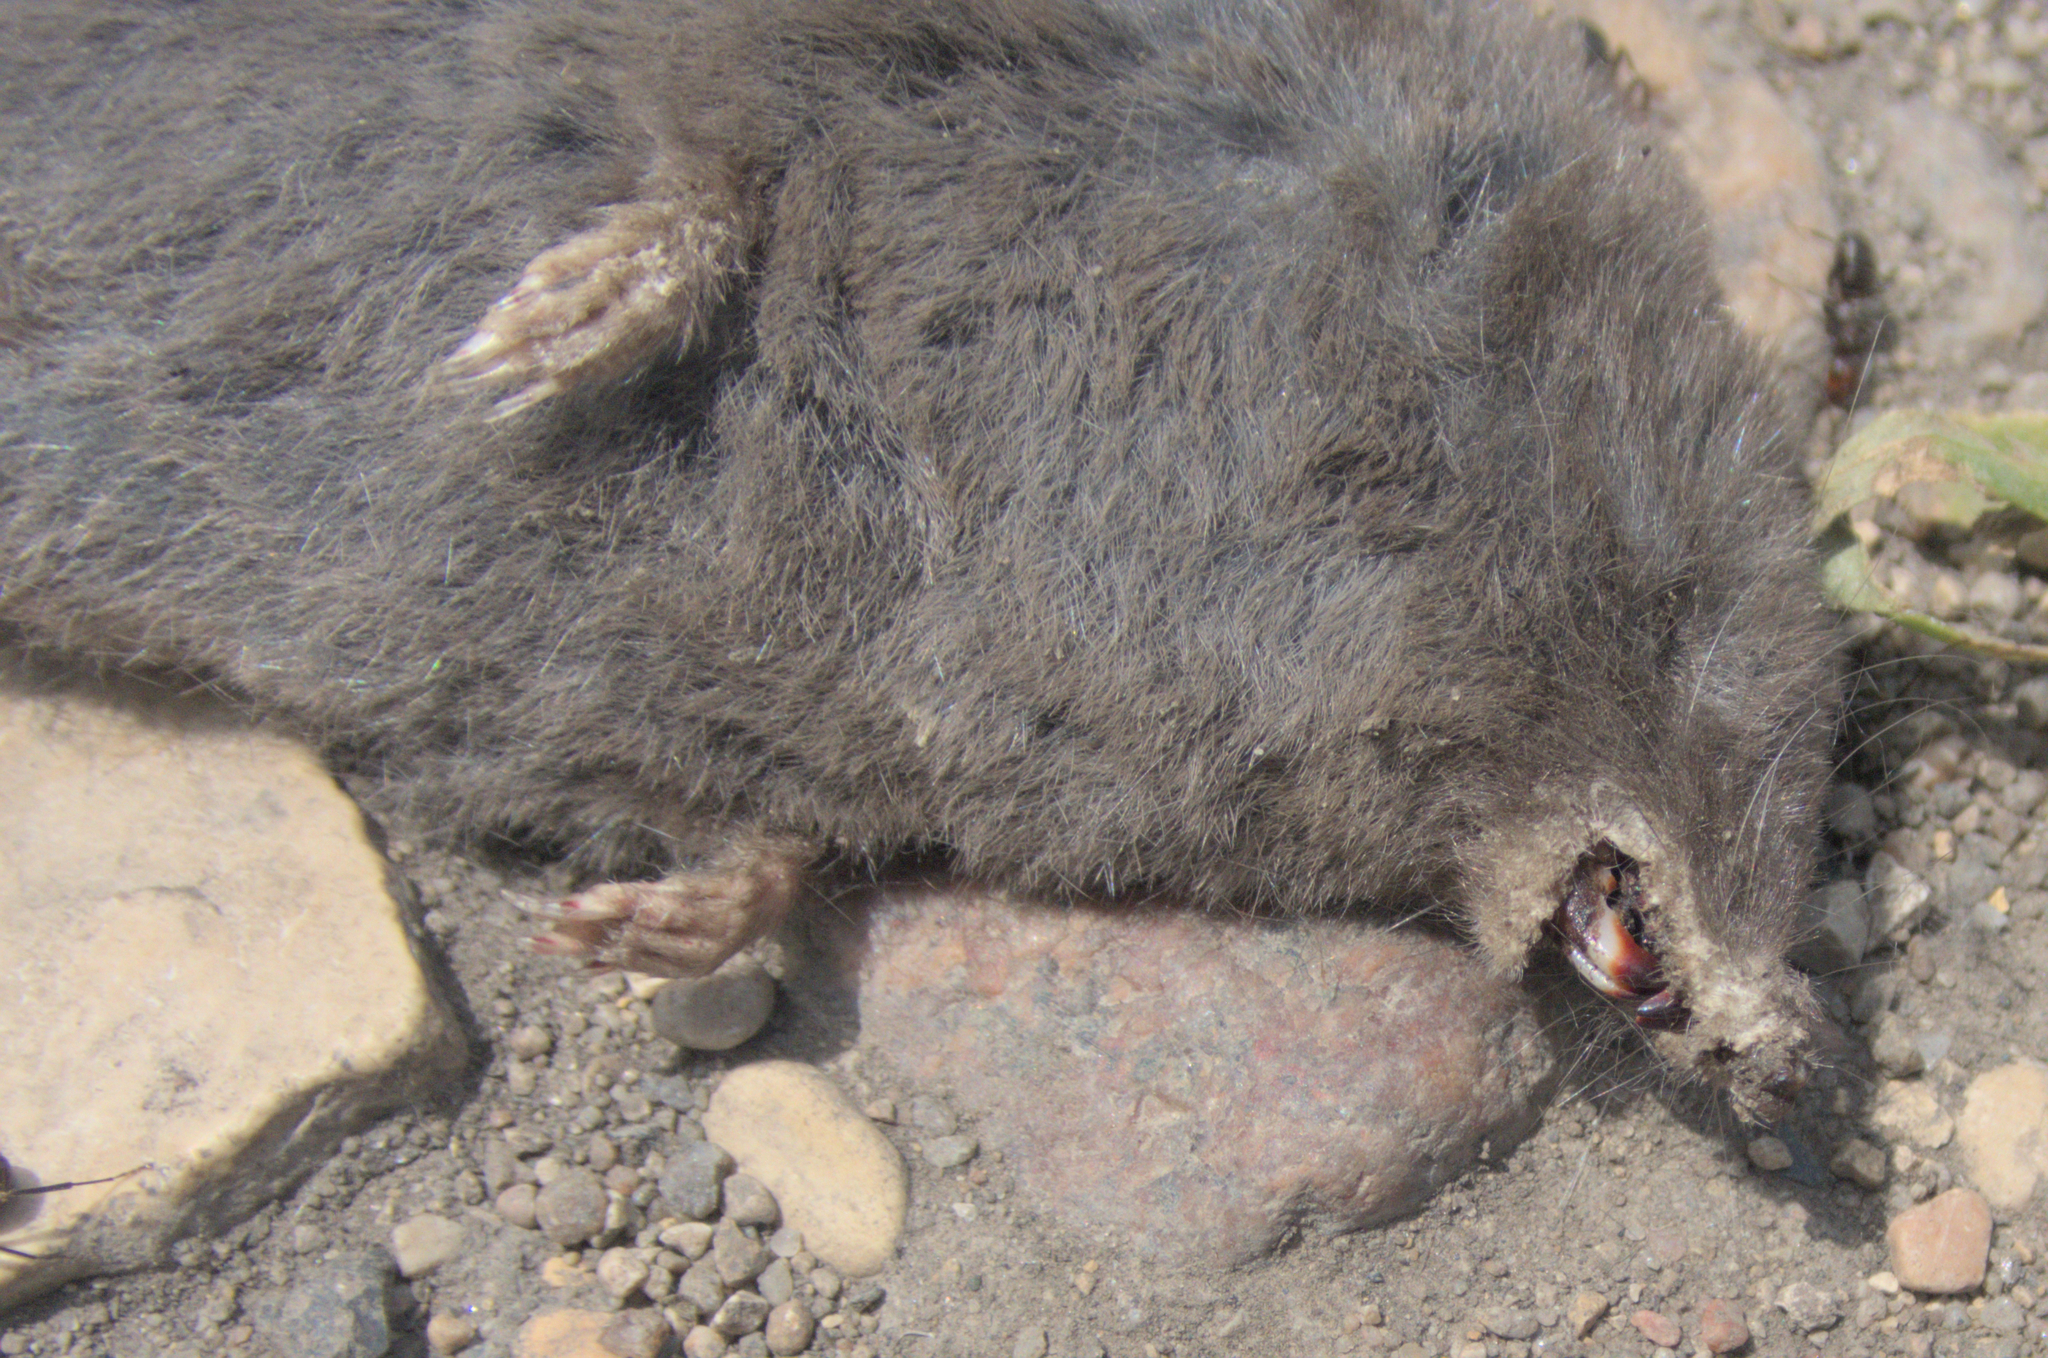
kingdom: Animalia
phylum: Chordata
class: Mammalia
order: Soricomorpha
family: Soricidae
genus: Blarina
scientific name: Blarina brevicauda
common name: Northern short-tailed shrew
